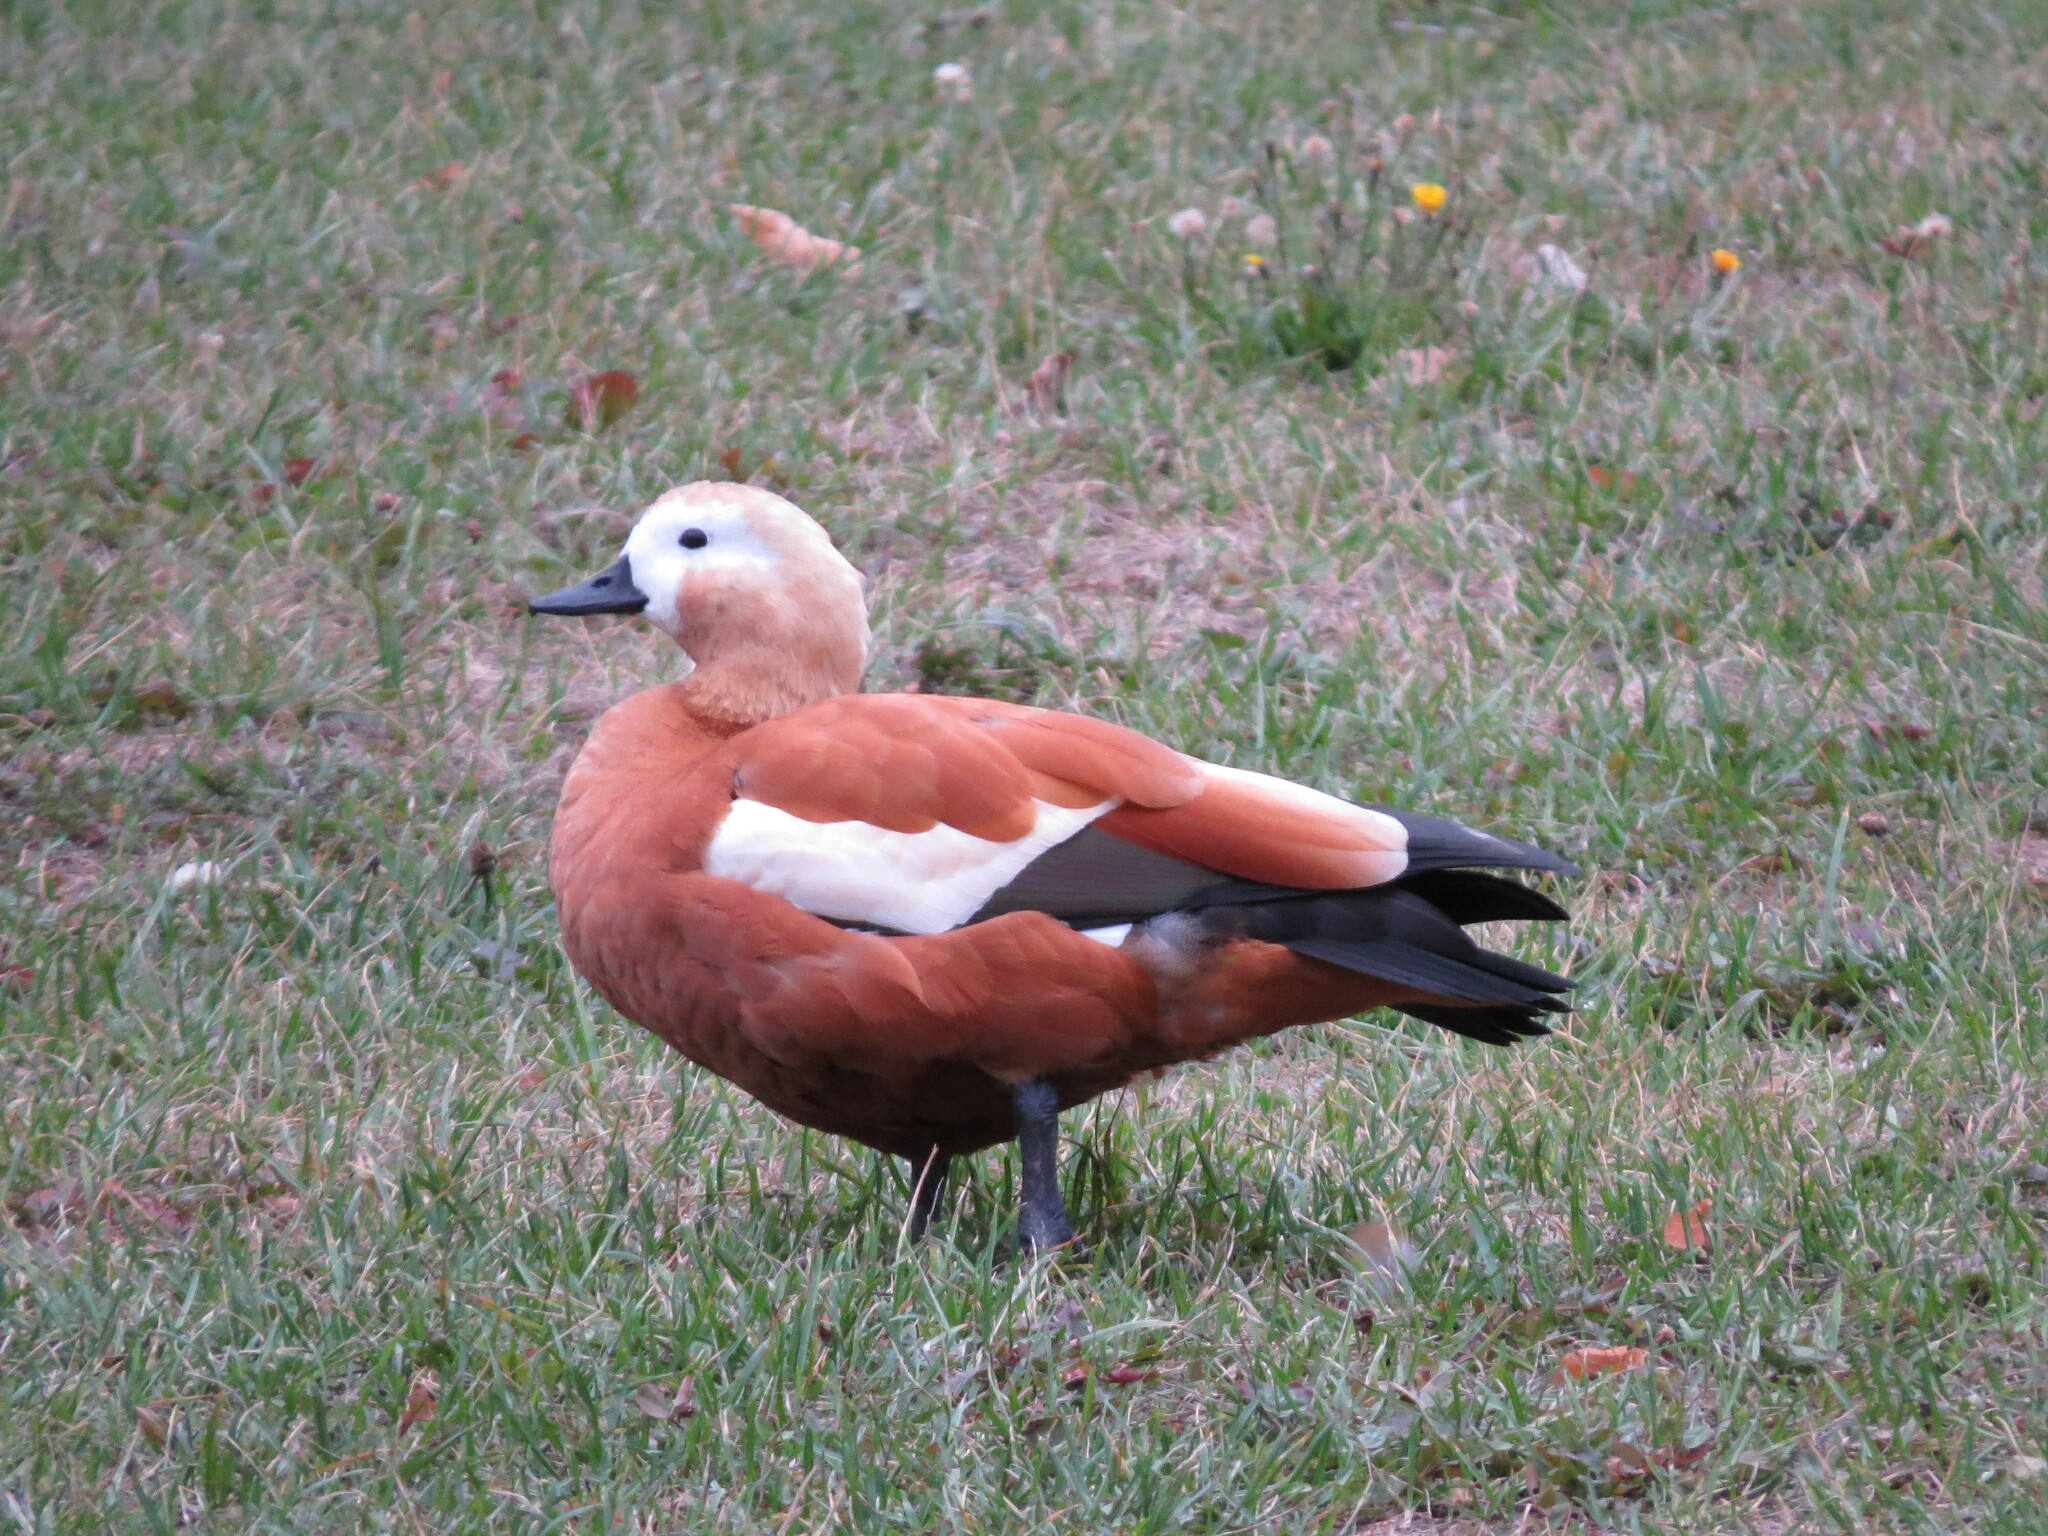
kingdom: Animalia
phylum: Chordata
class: Aves
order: Anseriformes
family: Anatidae
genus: Tadorna
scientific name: Tadorna ferruginea
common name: Ruddy shelduck
